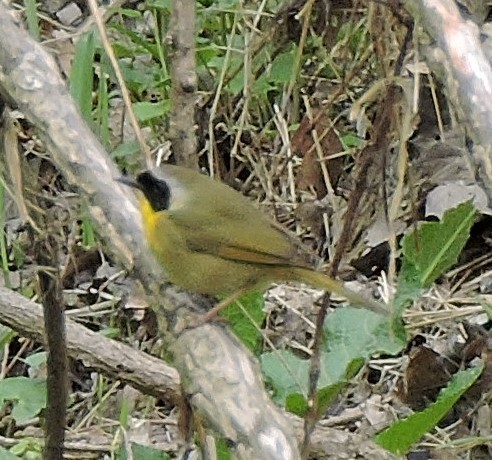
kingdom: Animalia
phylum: Chordata
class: Aves
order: Passeriformes
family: Parulidae
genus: Geothlypis
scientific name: Geothlypis trichas
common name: Common yellowthroat
